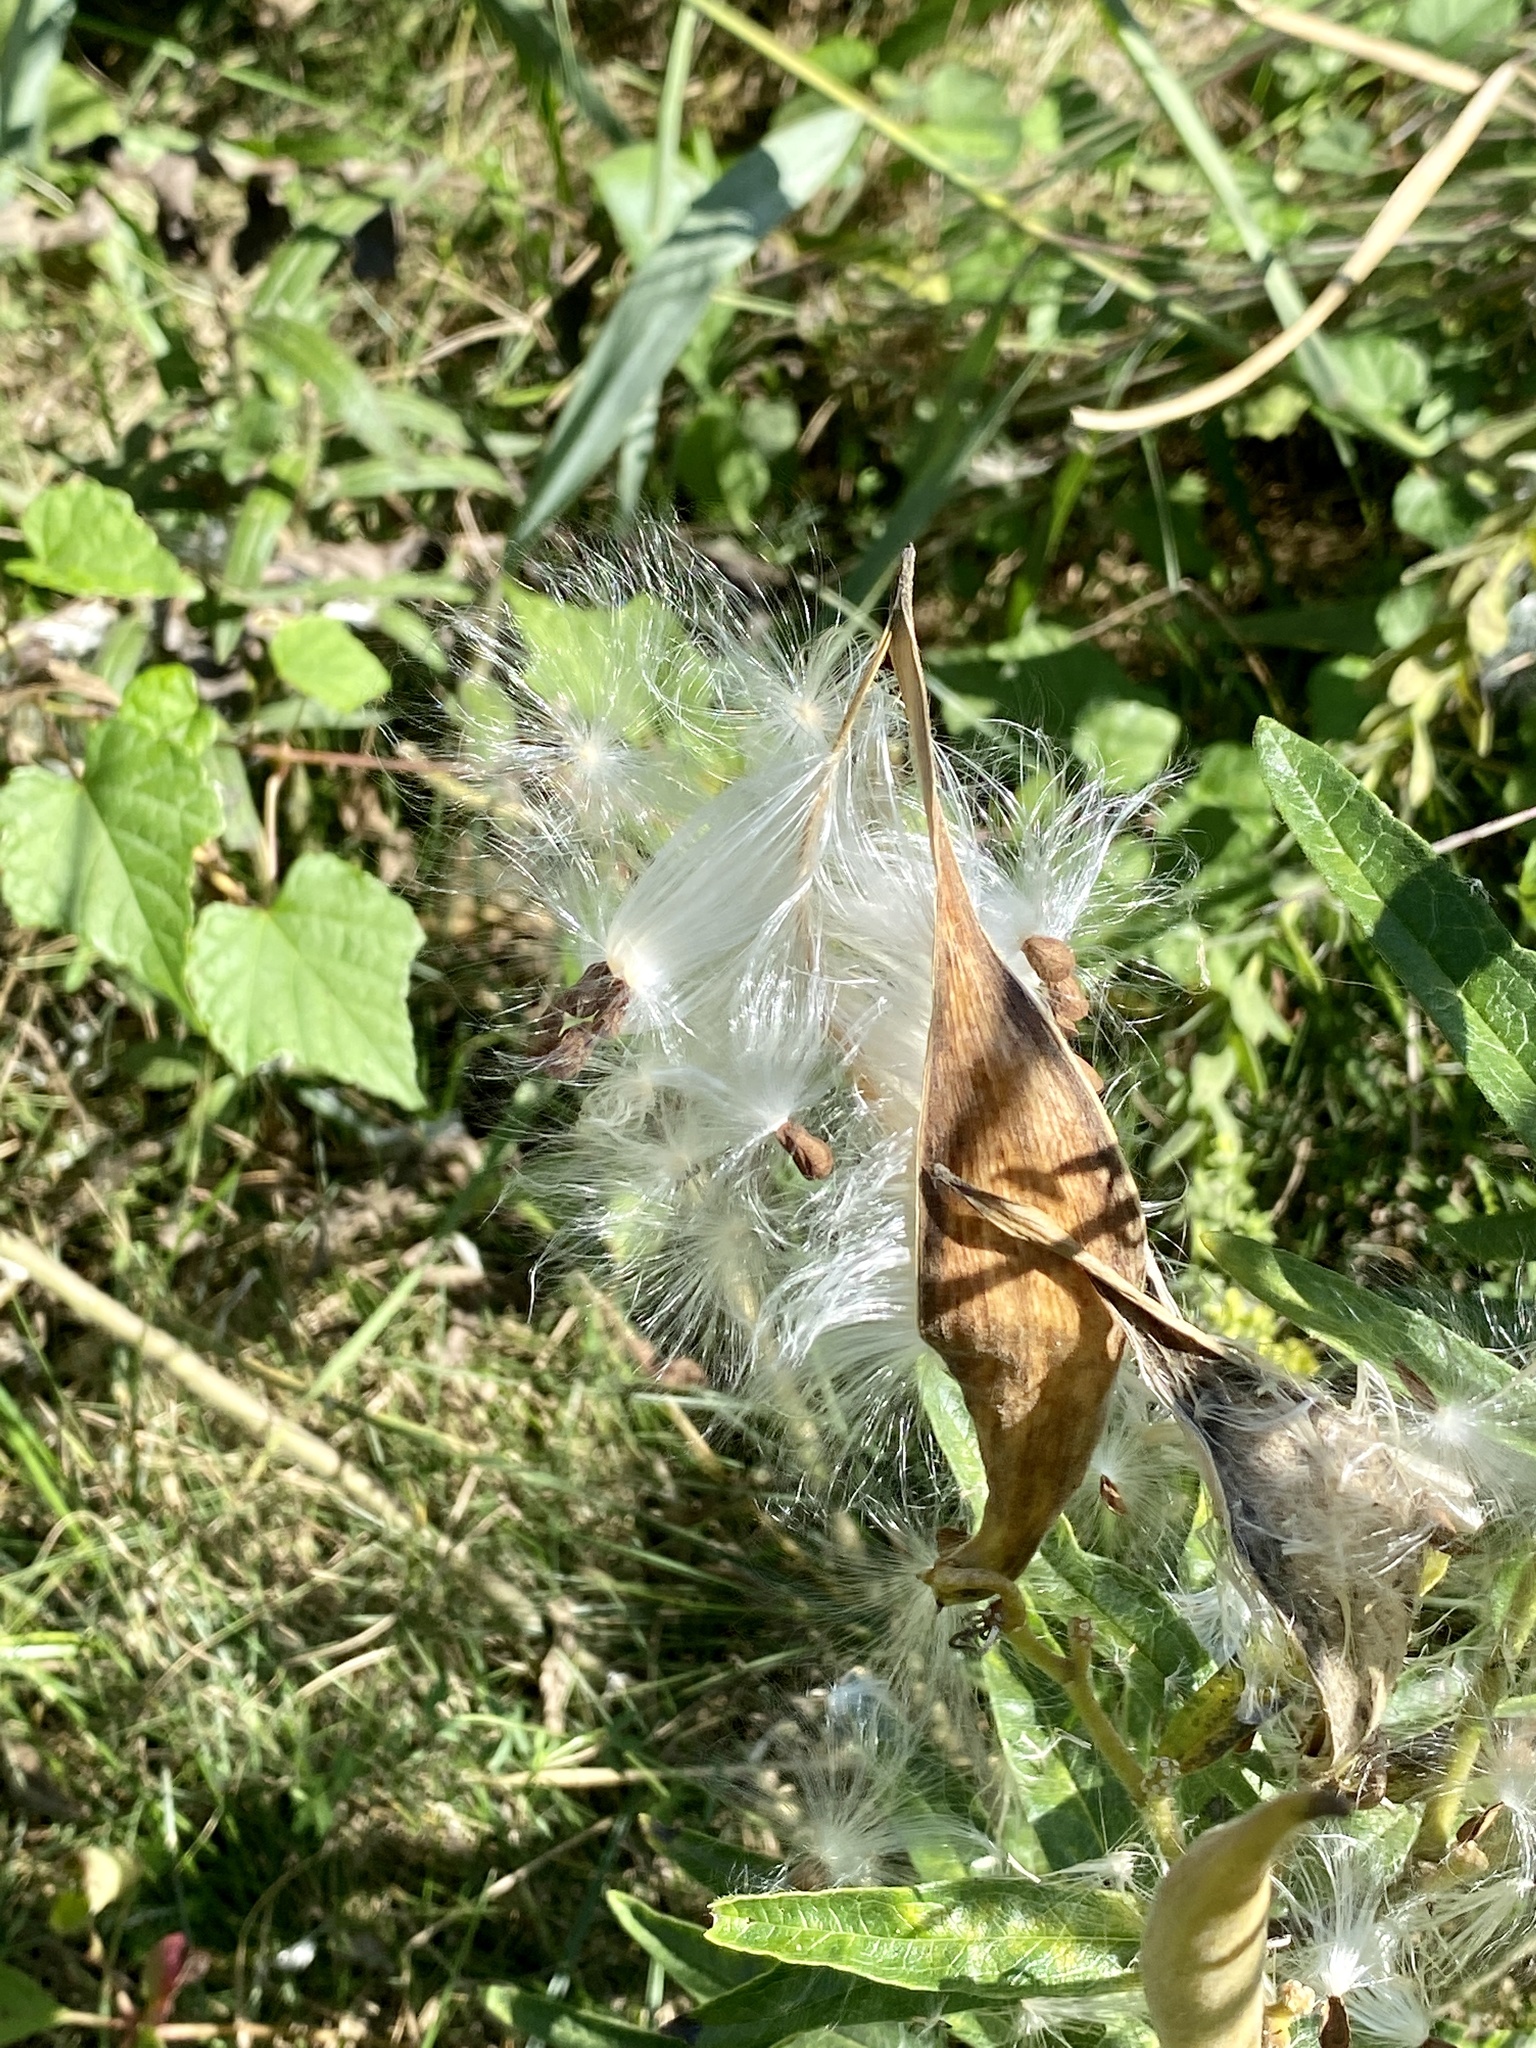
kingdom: Plantae
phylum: Tracheophyta
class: Magnoliopsida
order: Gentianales
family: Apocynaceae
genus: Asclepias
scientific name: Asclepias tuberosa
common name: Butterfly milkweed
